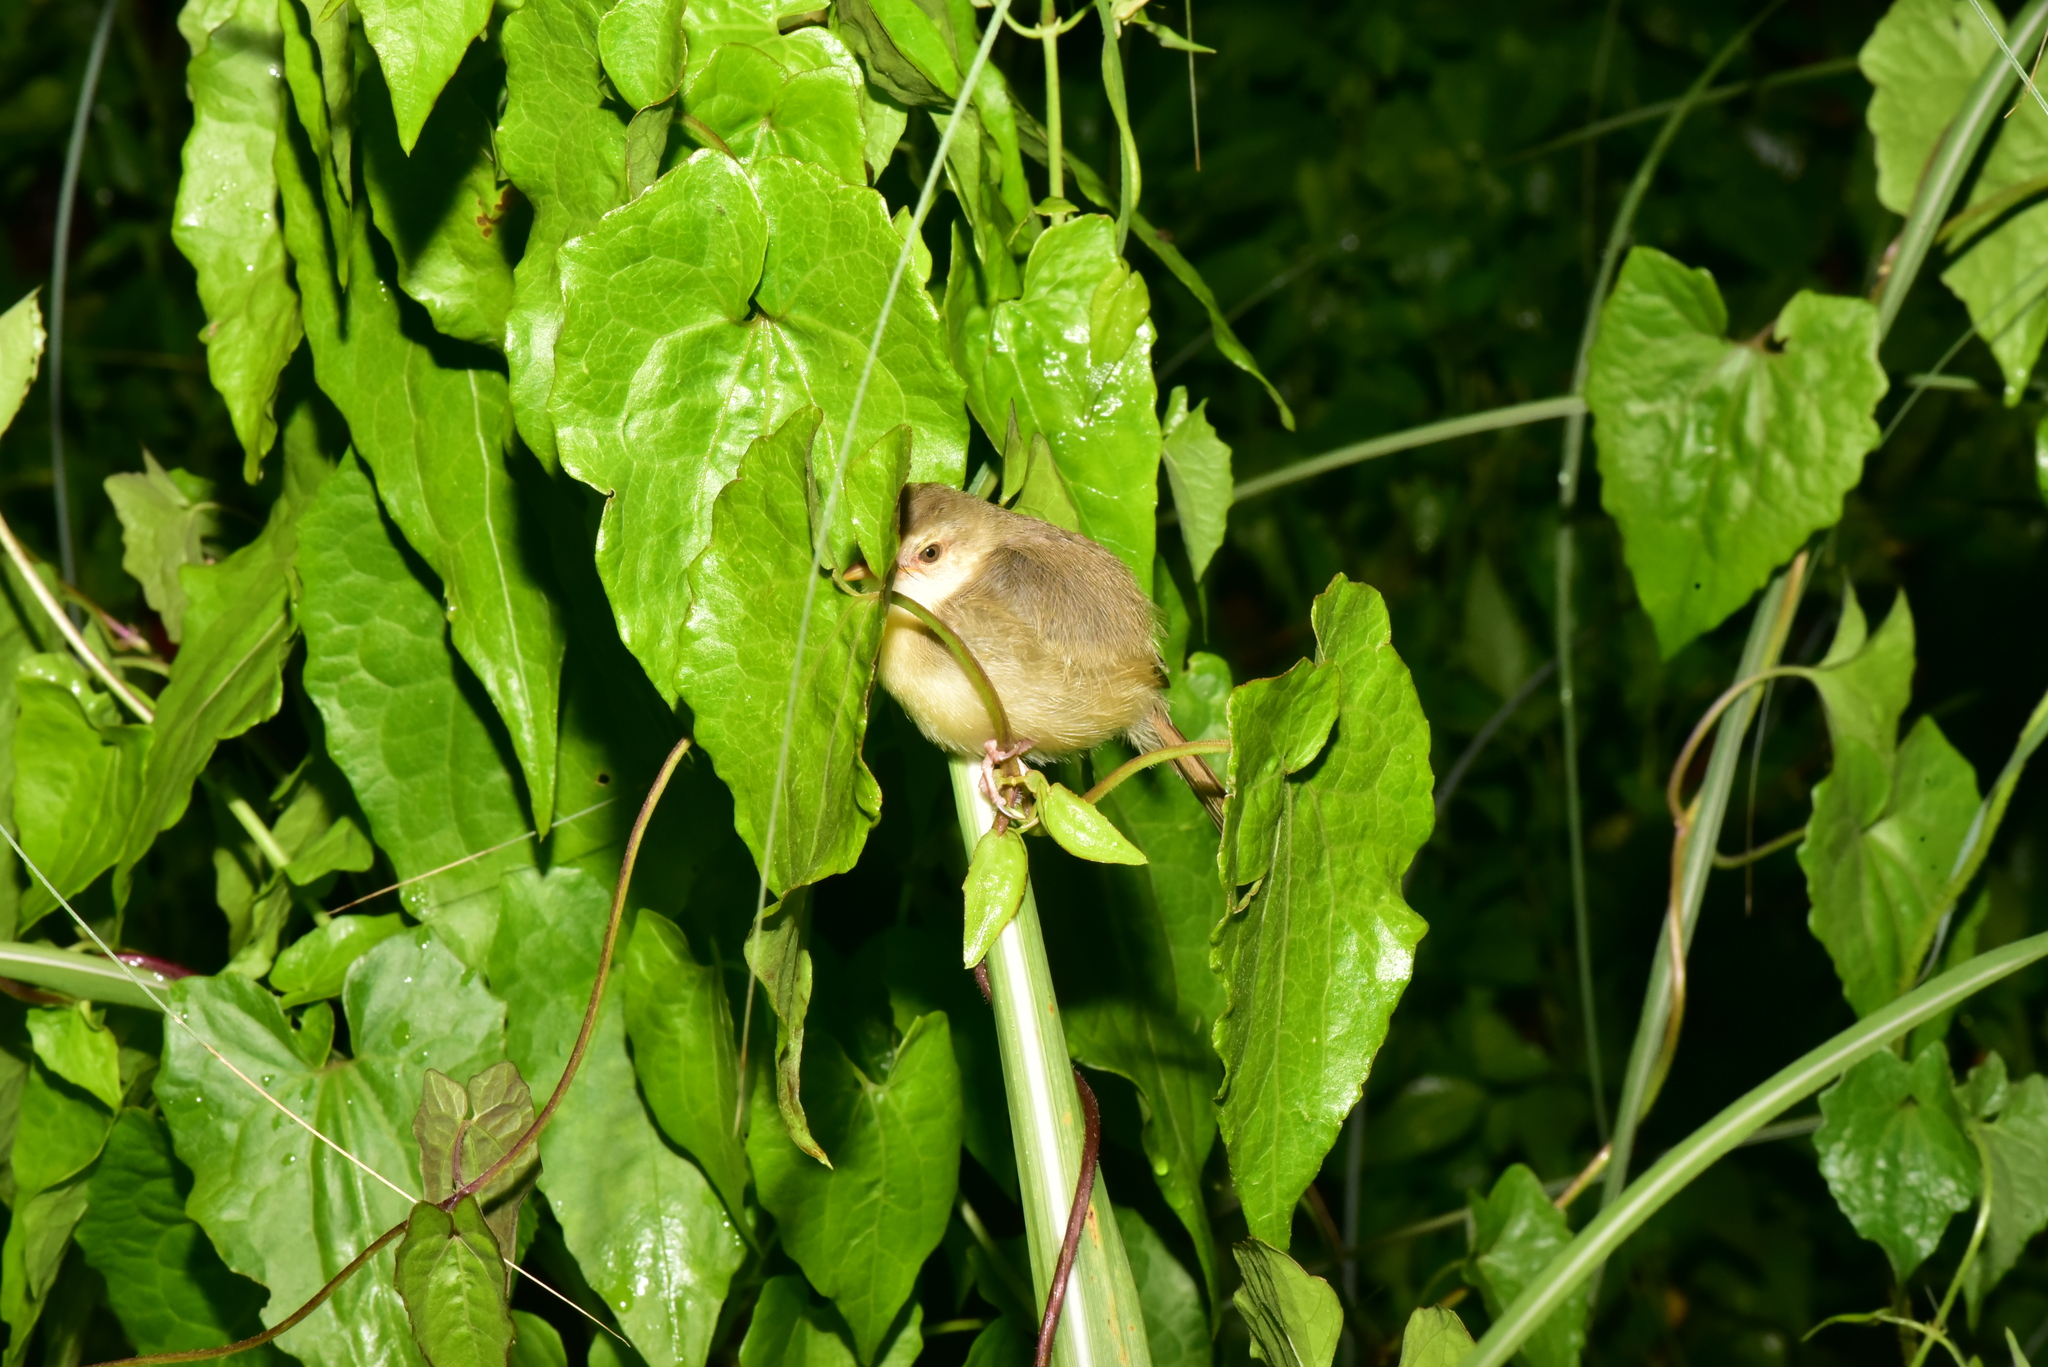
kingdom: Animalia
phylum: Chordata
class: Aves
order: Passeriformes
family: Cisticolidae
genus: Prinia
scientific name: Prinia inornata
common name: Plain prinia
